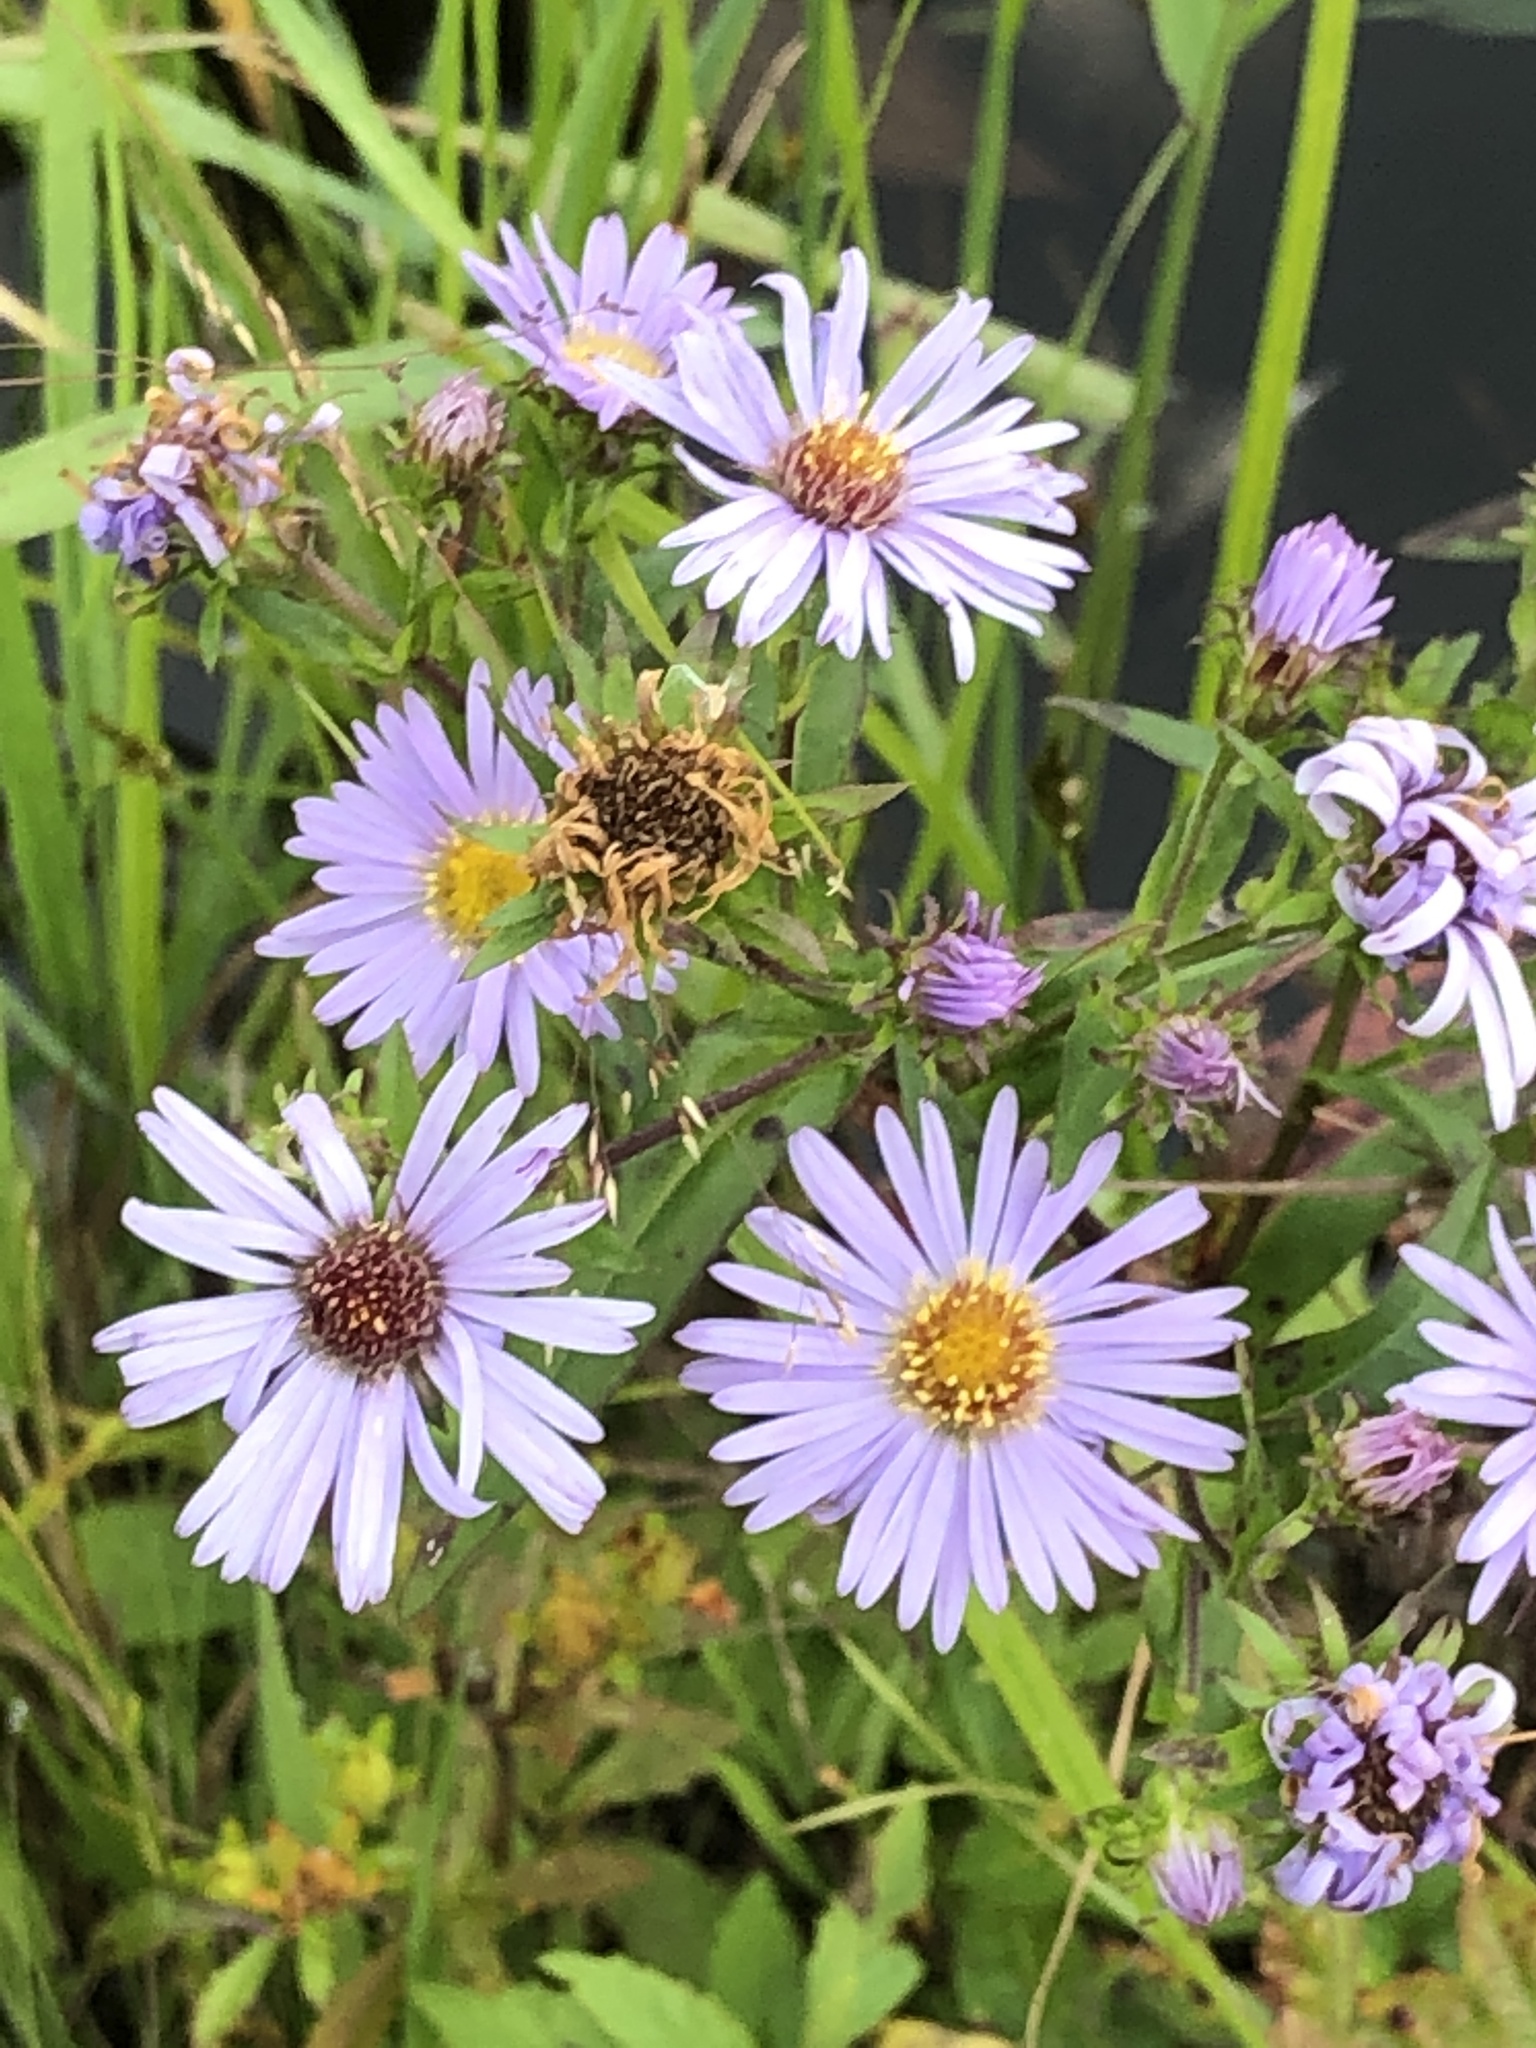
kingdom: Plantae
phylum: Tracheophyta
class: Magnoliopsida
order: Asterales
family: Asteraceae
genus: Symphyotrichum
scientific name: Symphyotrichum puniceum
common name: Bog aster
